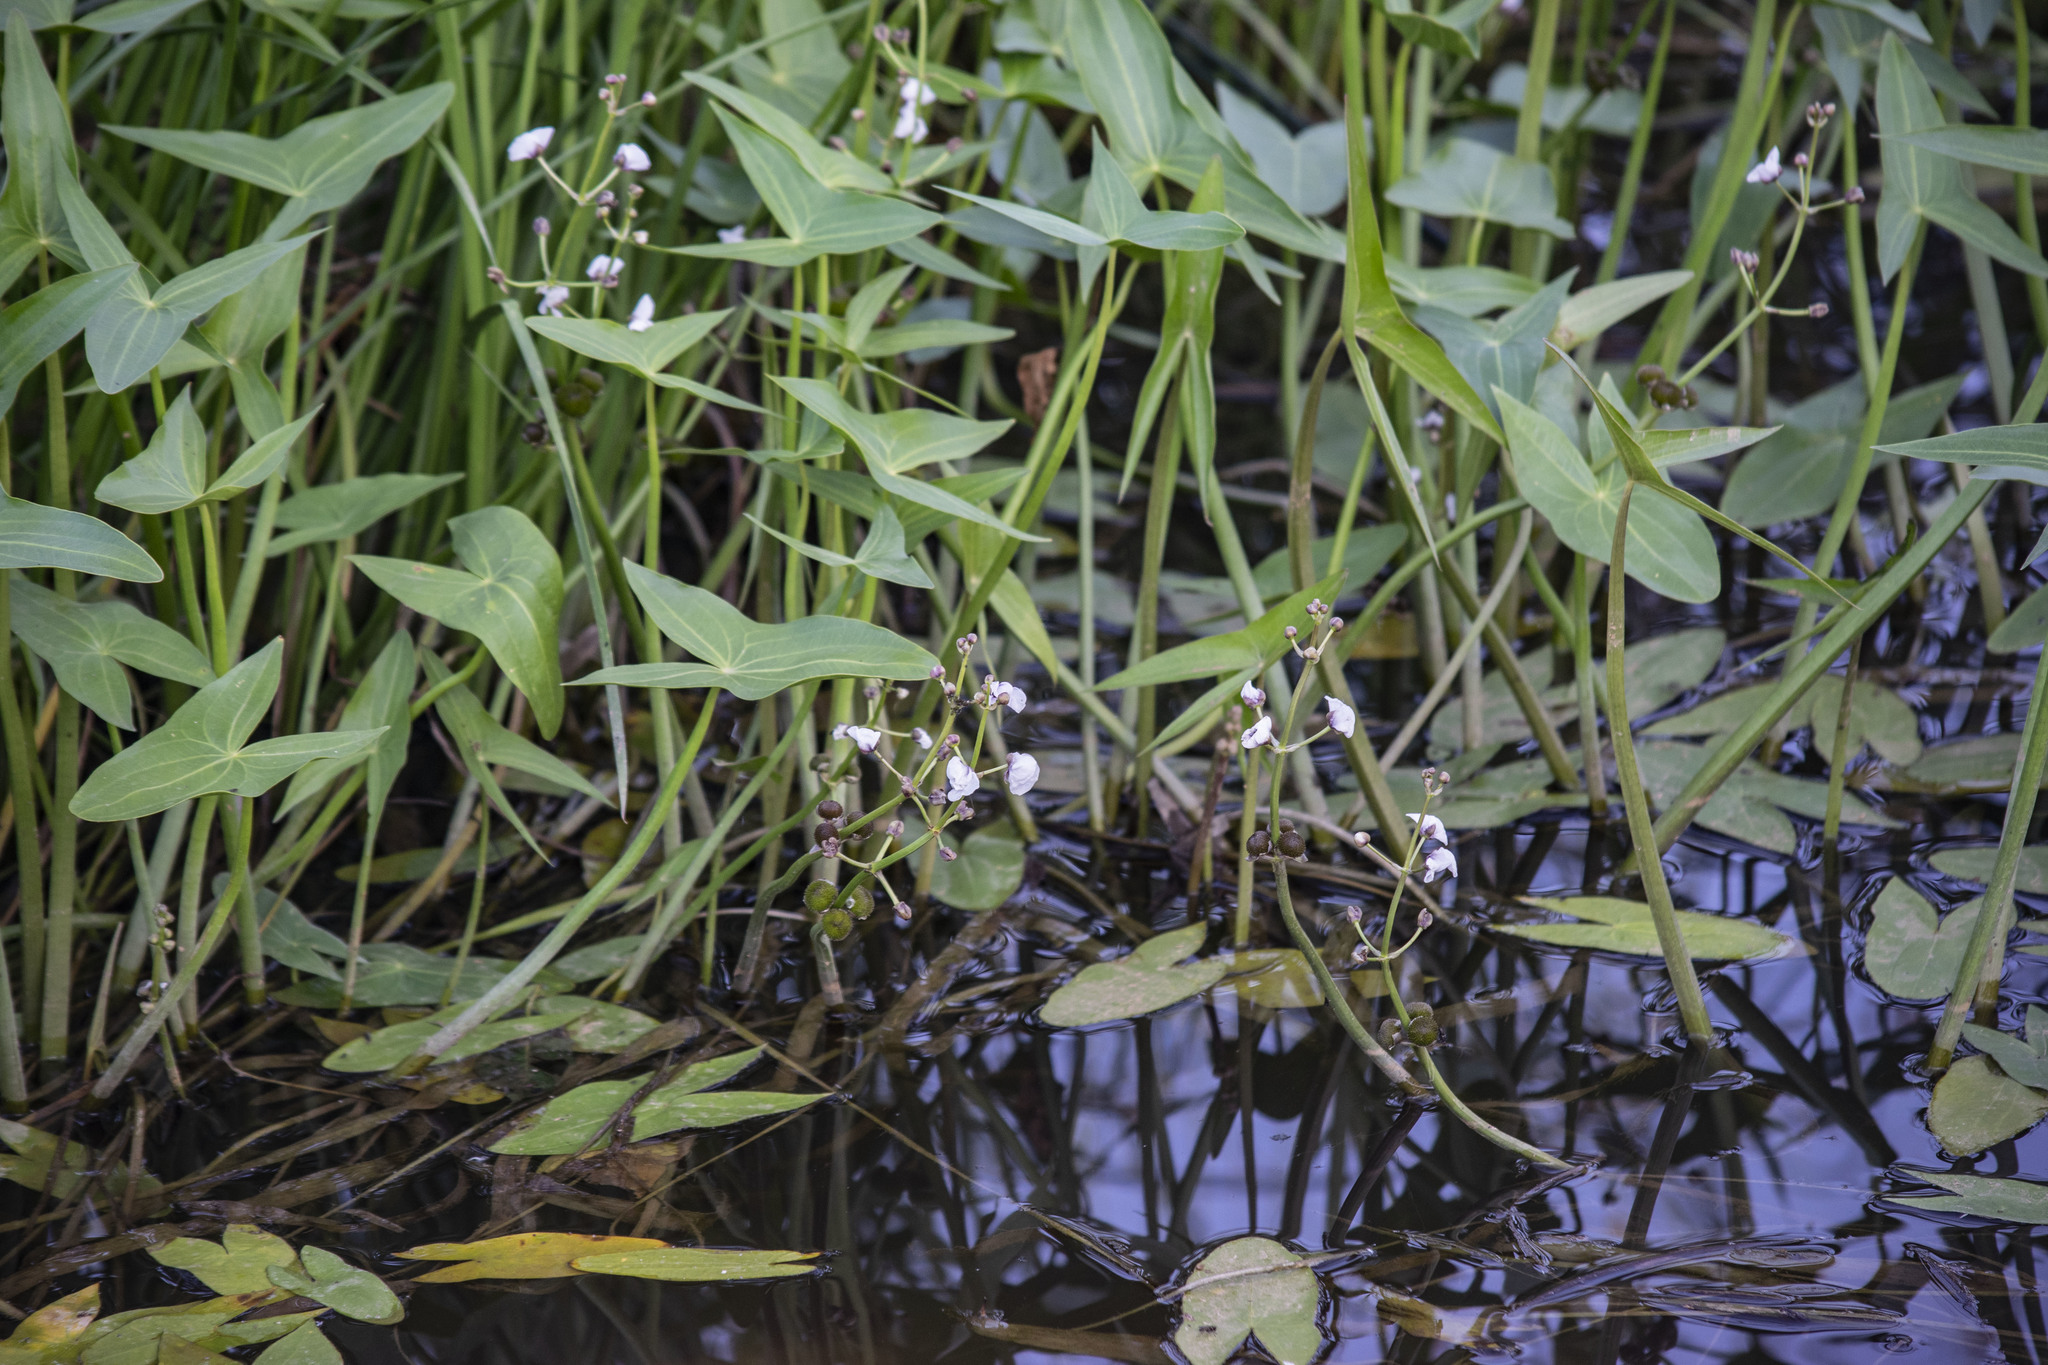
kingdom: Plantae
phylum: Tracheophyta
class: Liliopsida
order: Alismatales
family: Alismataceae
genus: Sagittaria
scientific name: Sagittaria sagittifolia
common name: Arrowhead
